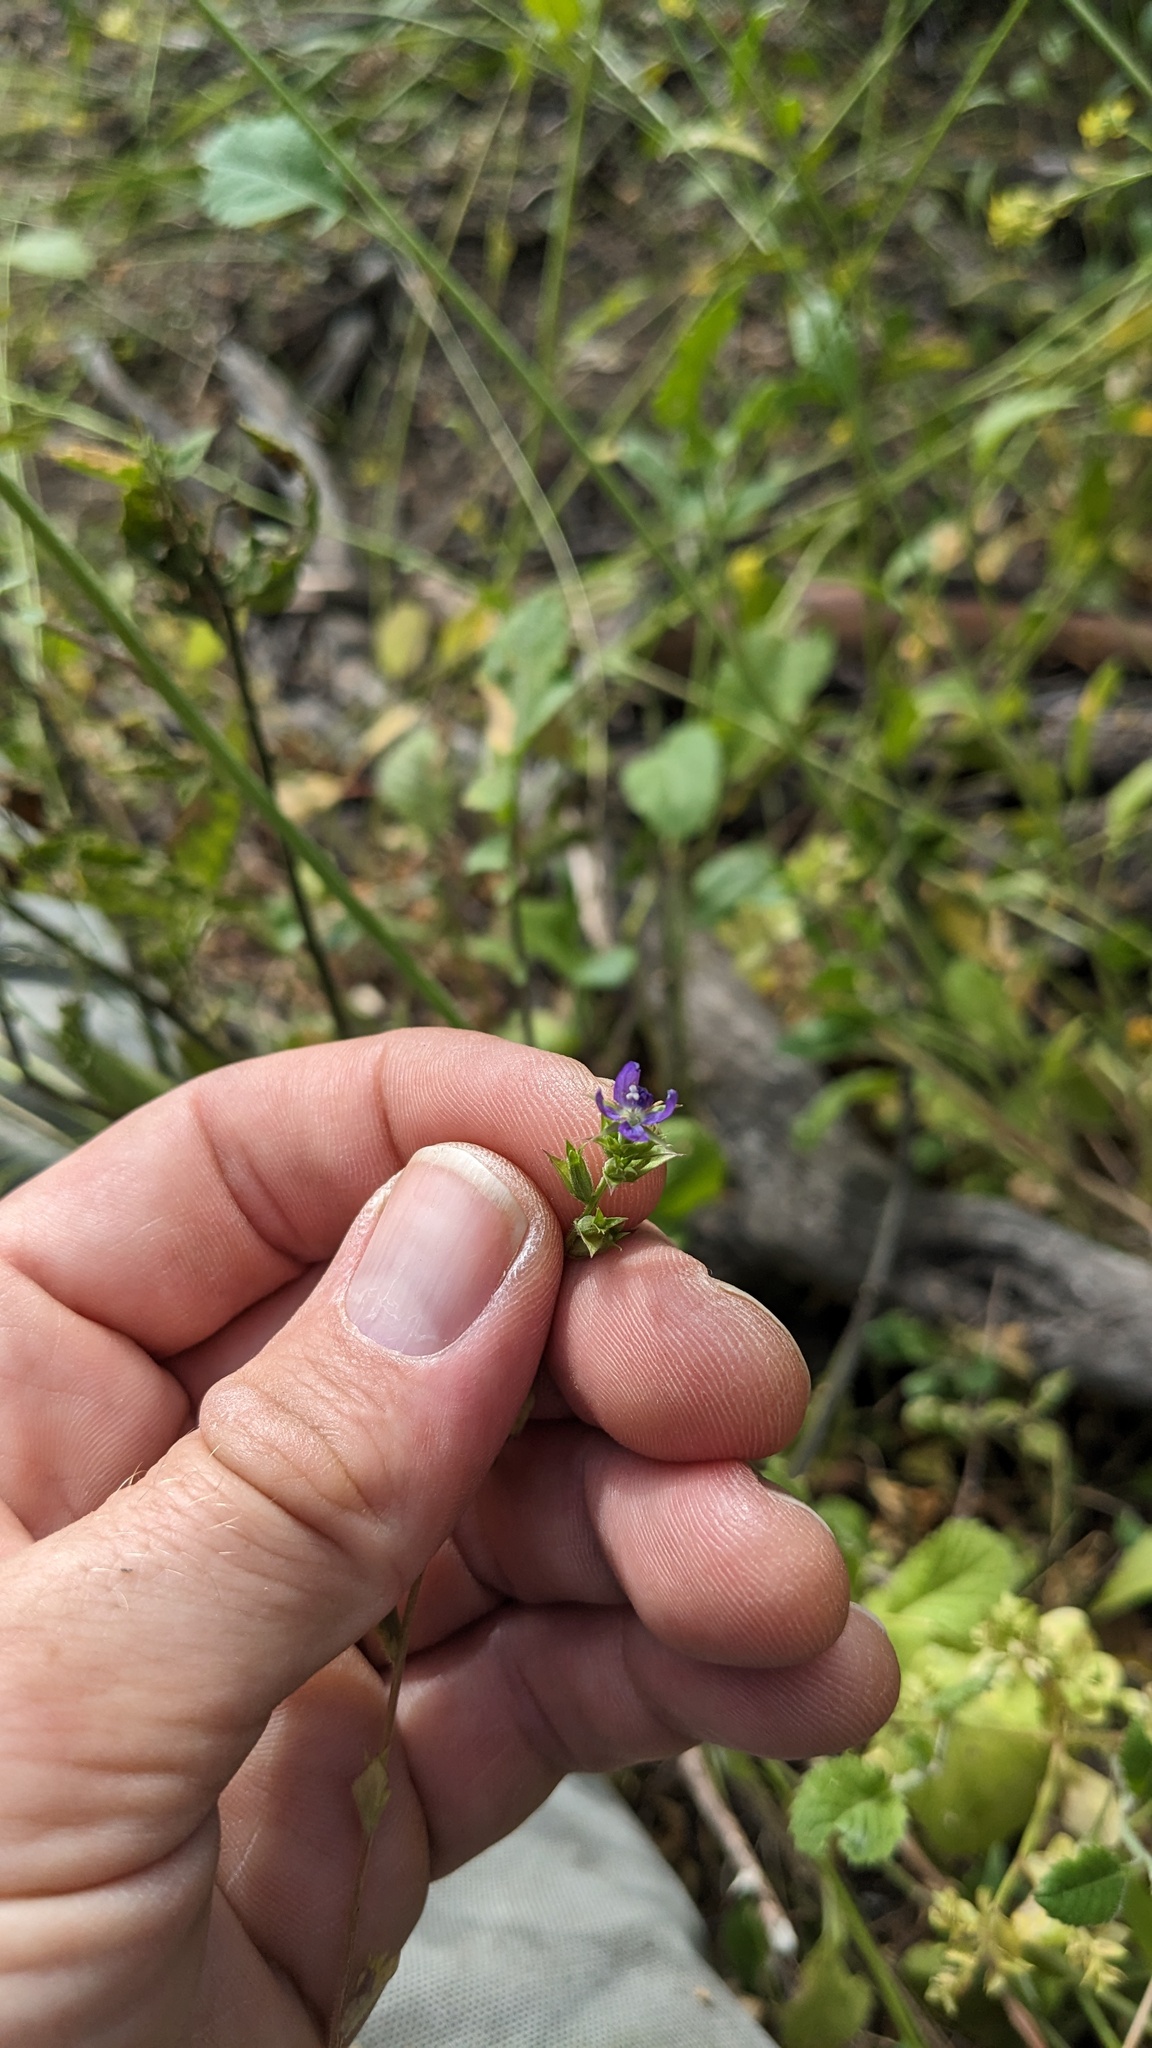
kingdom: Plantae
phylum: Tracheophyta
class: Magnoliopsida
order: Asterales
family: Campanulaceae
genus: Triodanis
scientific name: Triodanis biflora
